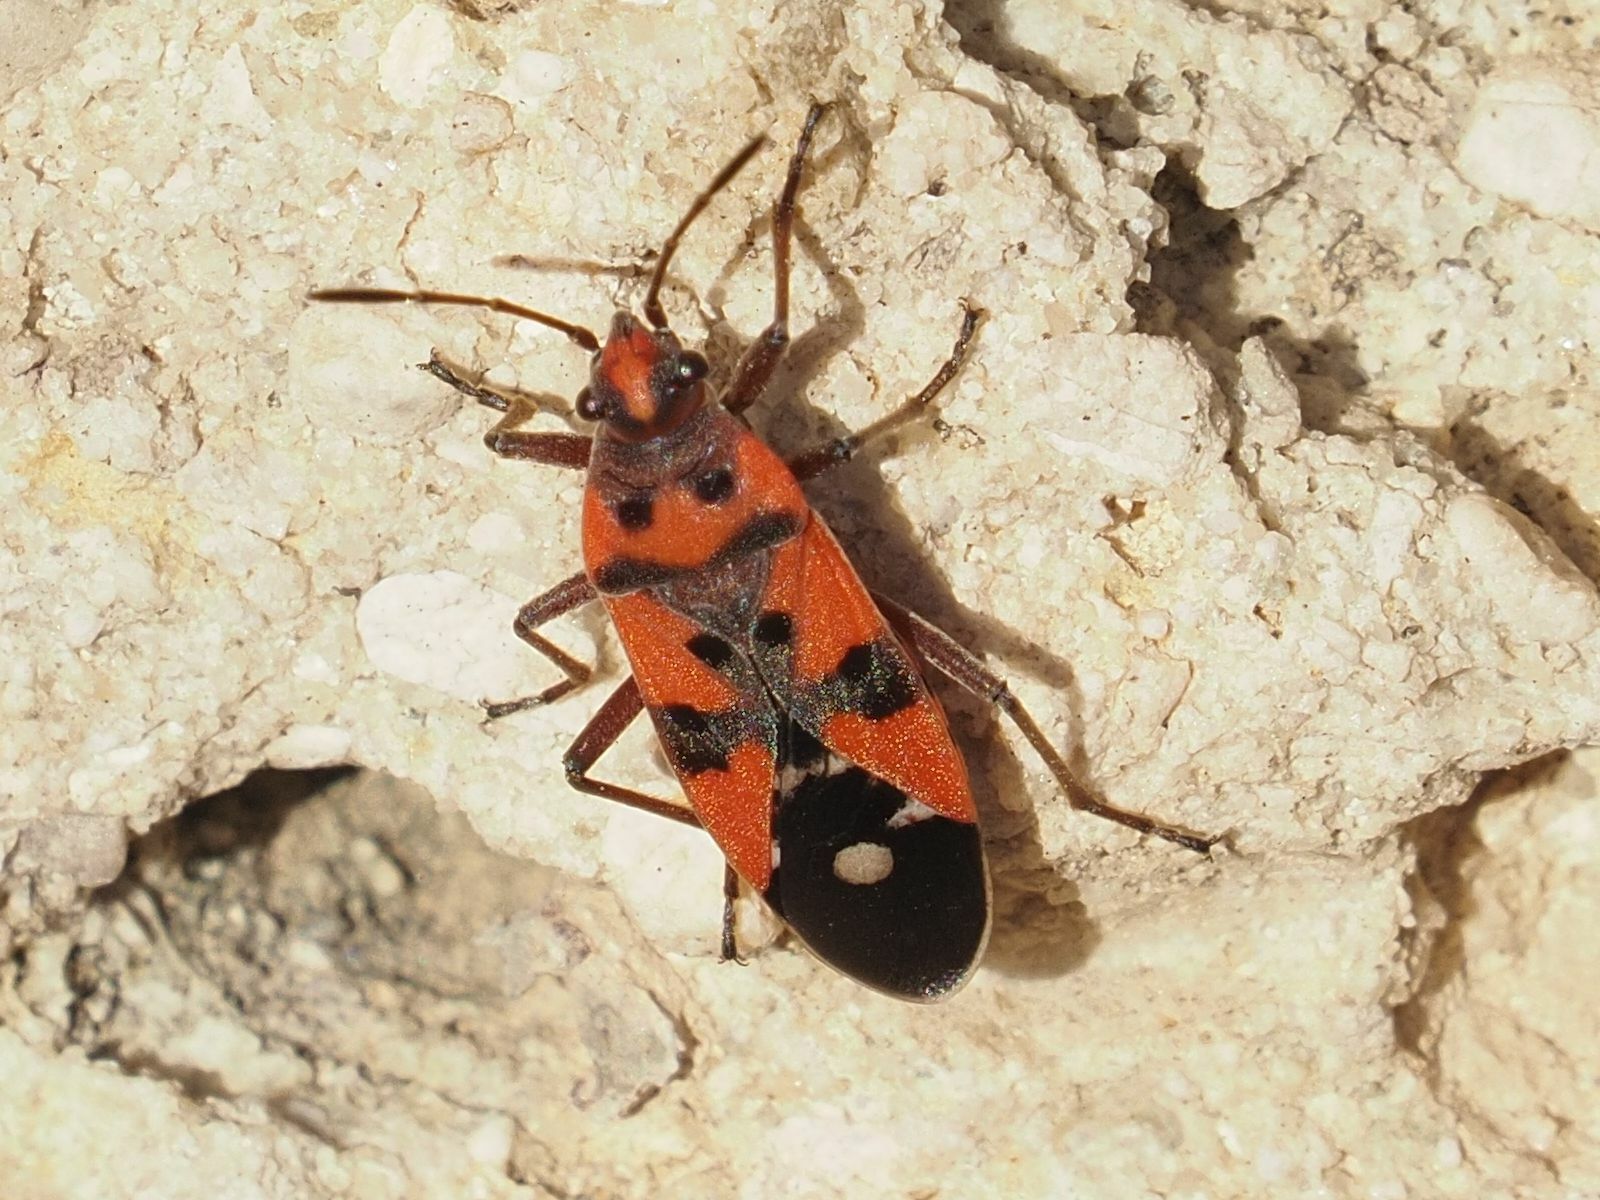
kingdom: Animalia
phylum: Arthropoda
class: Insecta
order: Hemiptera
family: Lygaeidae
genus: Lygaeus
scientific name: Lygaeus equestris
